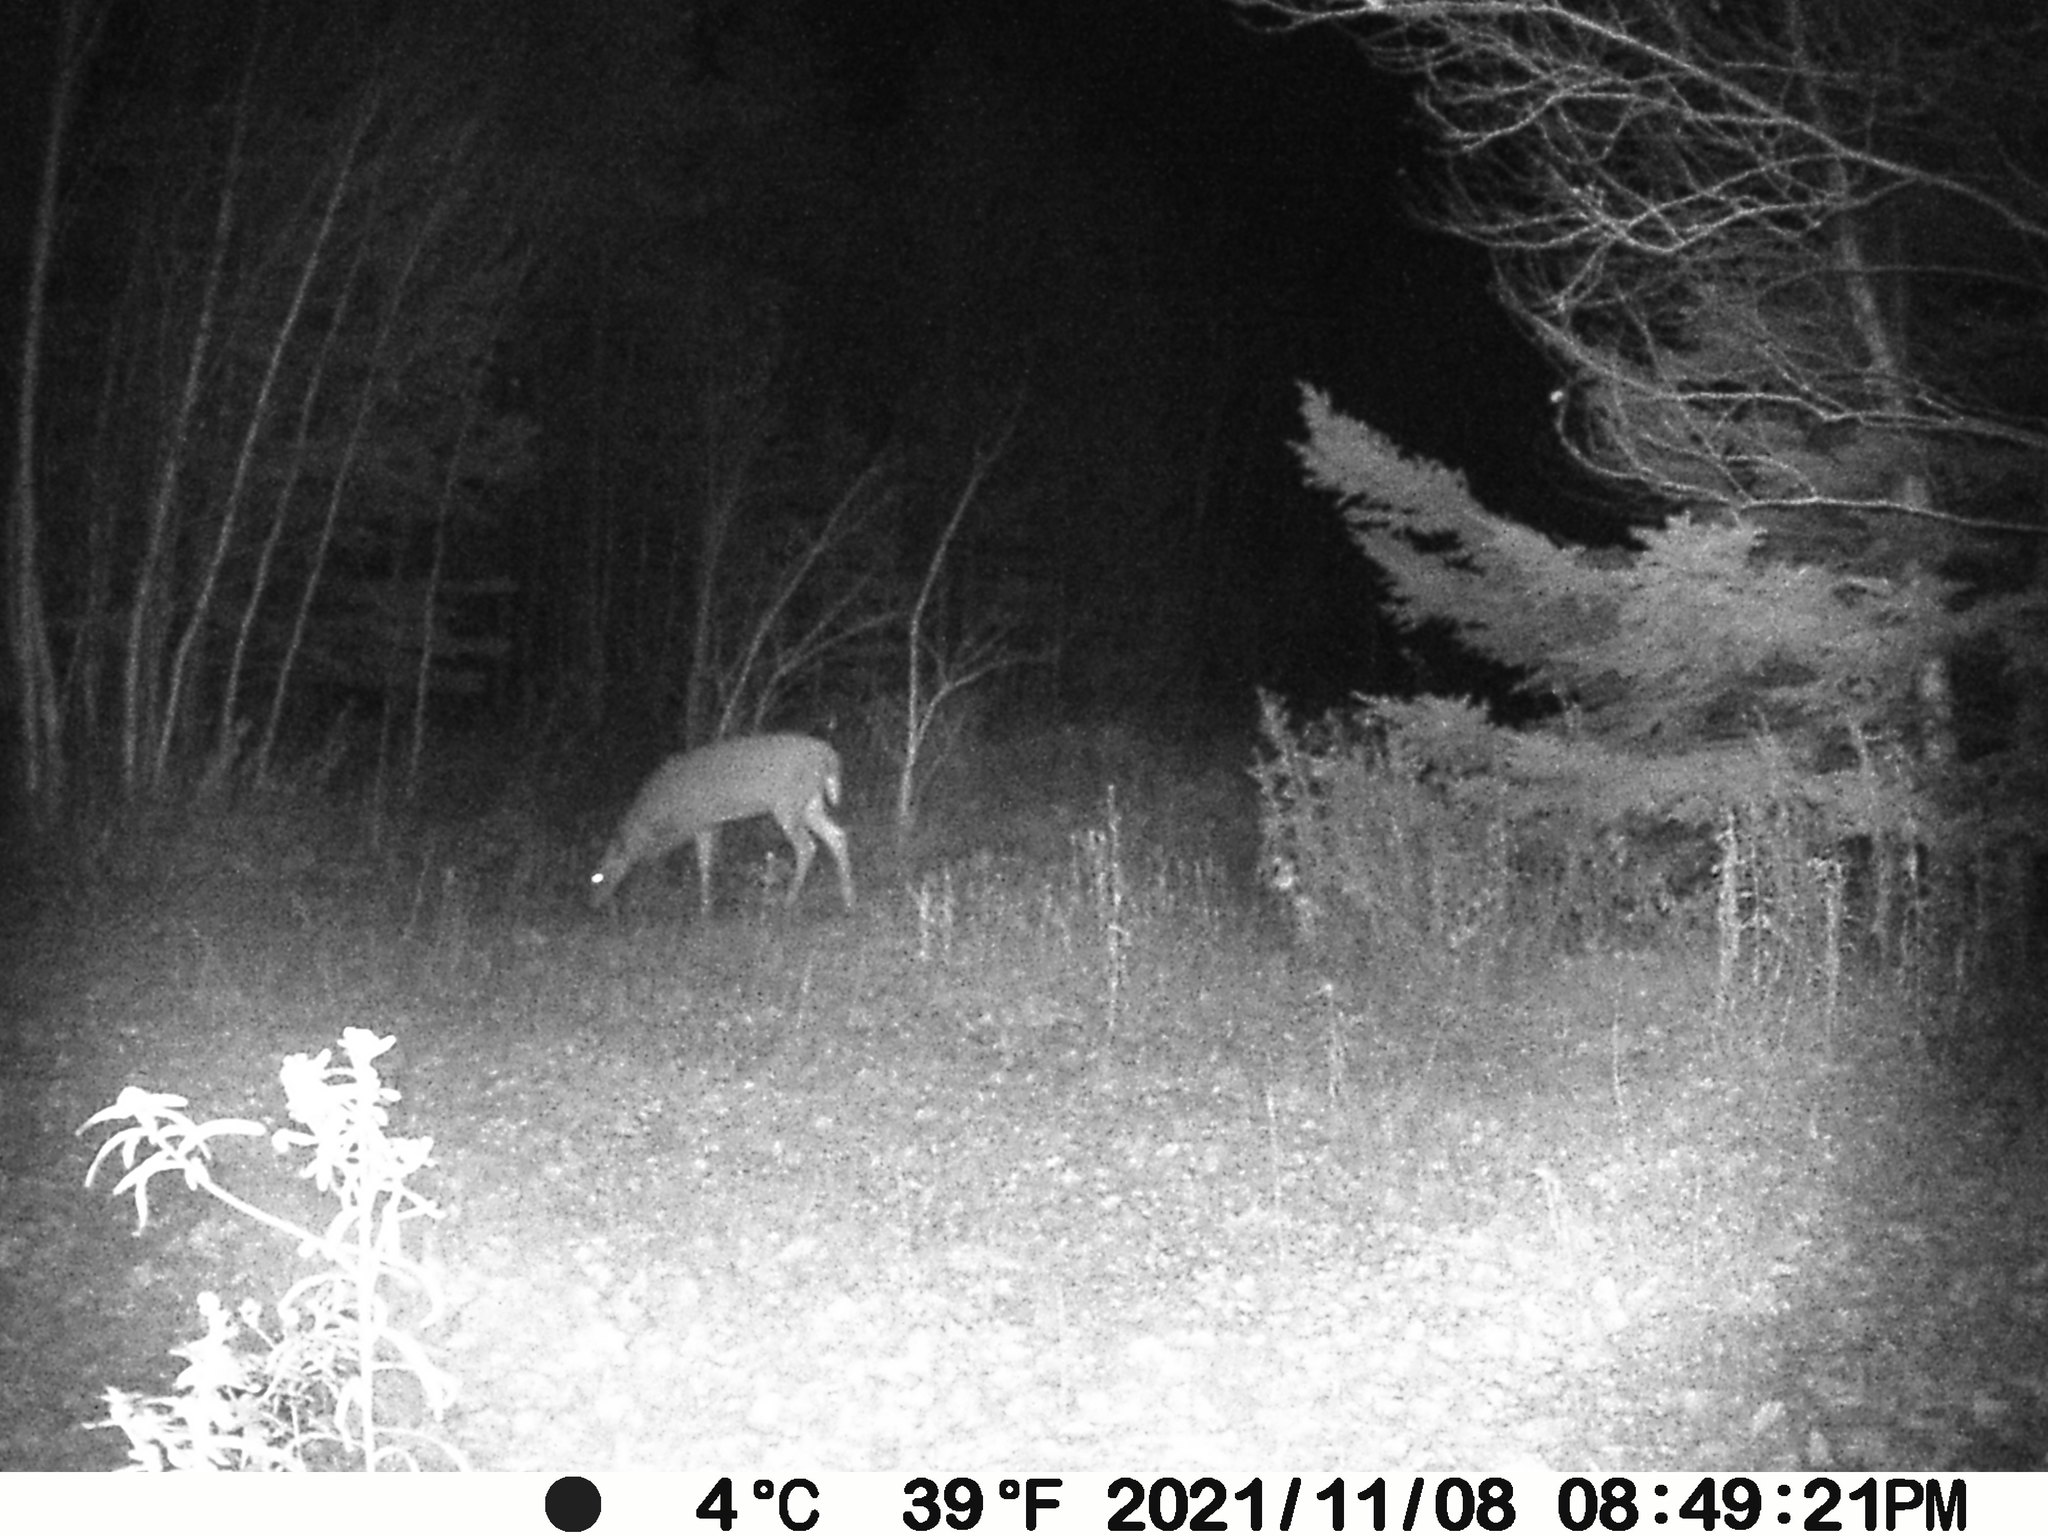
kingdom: Animalia
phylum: Chordata
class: Mammalia
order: Artiodactyla
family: Cervidae
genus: Odocoileus
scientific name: Odocoileus virginianus
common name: White-tailed deer
